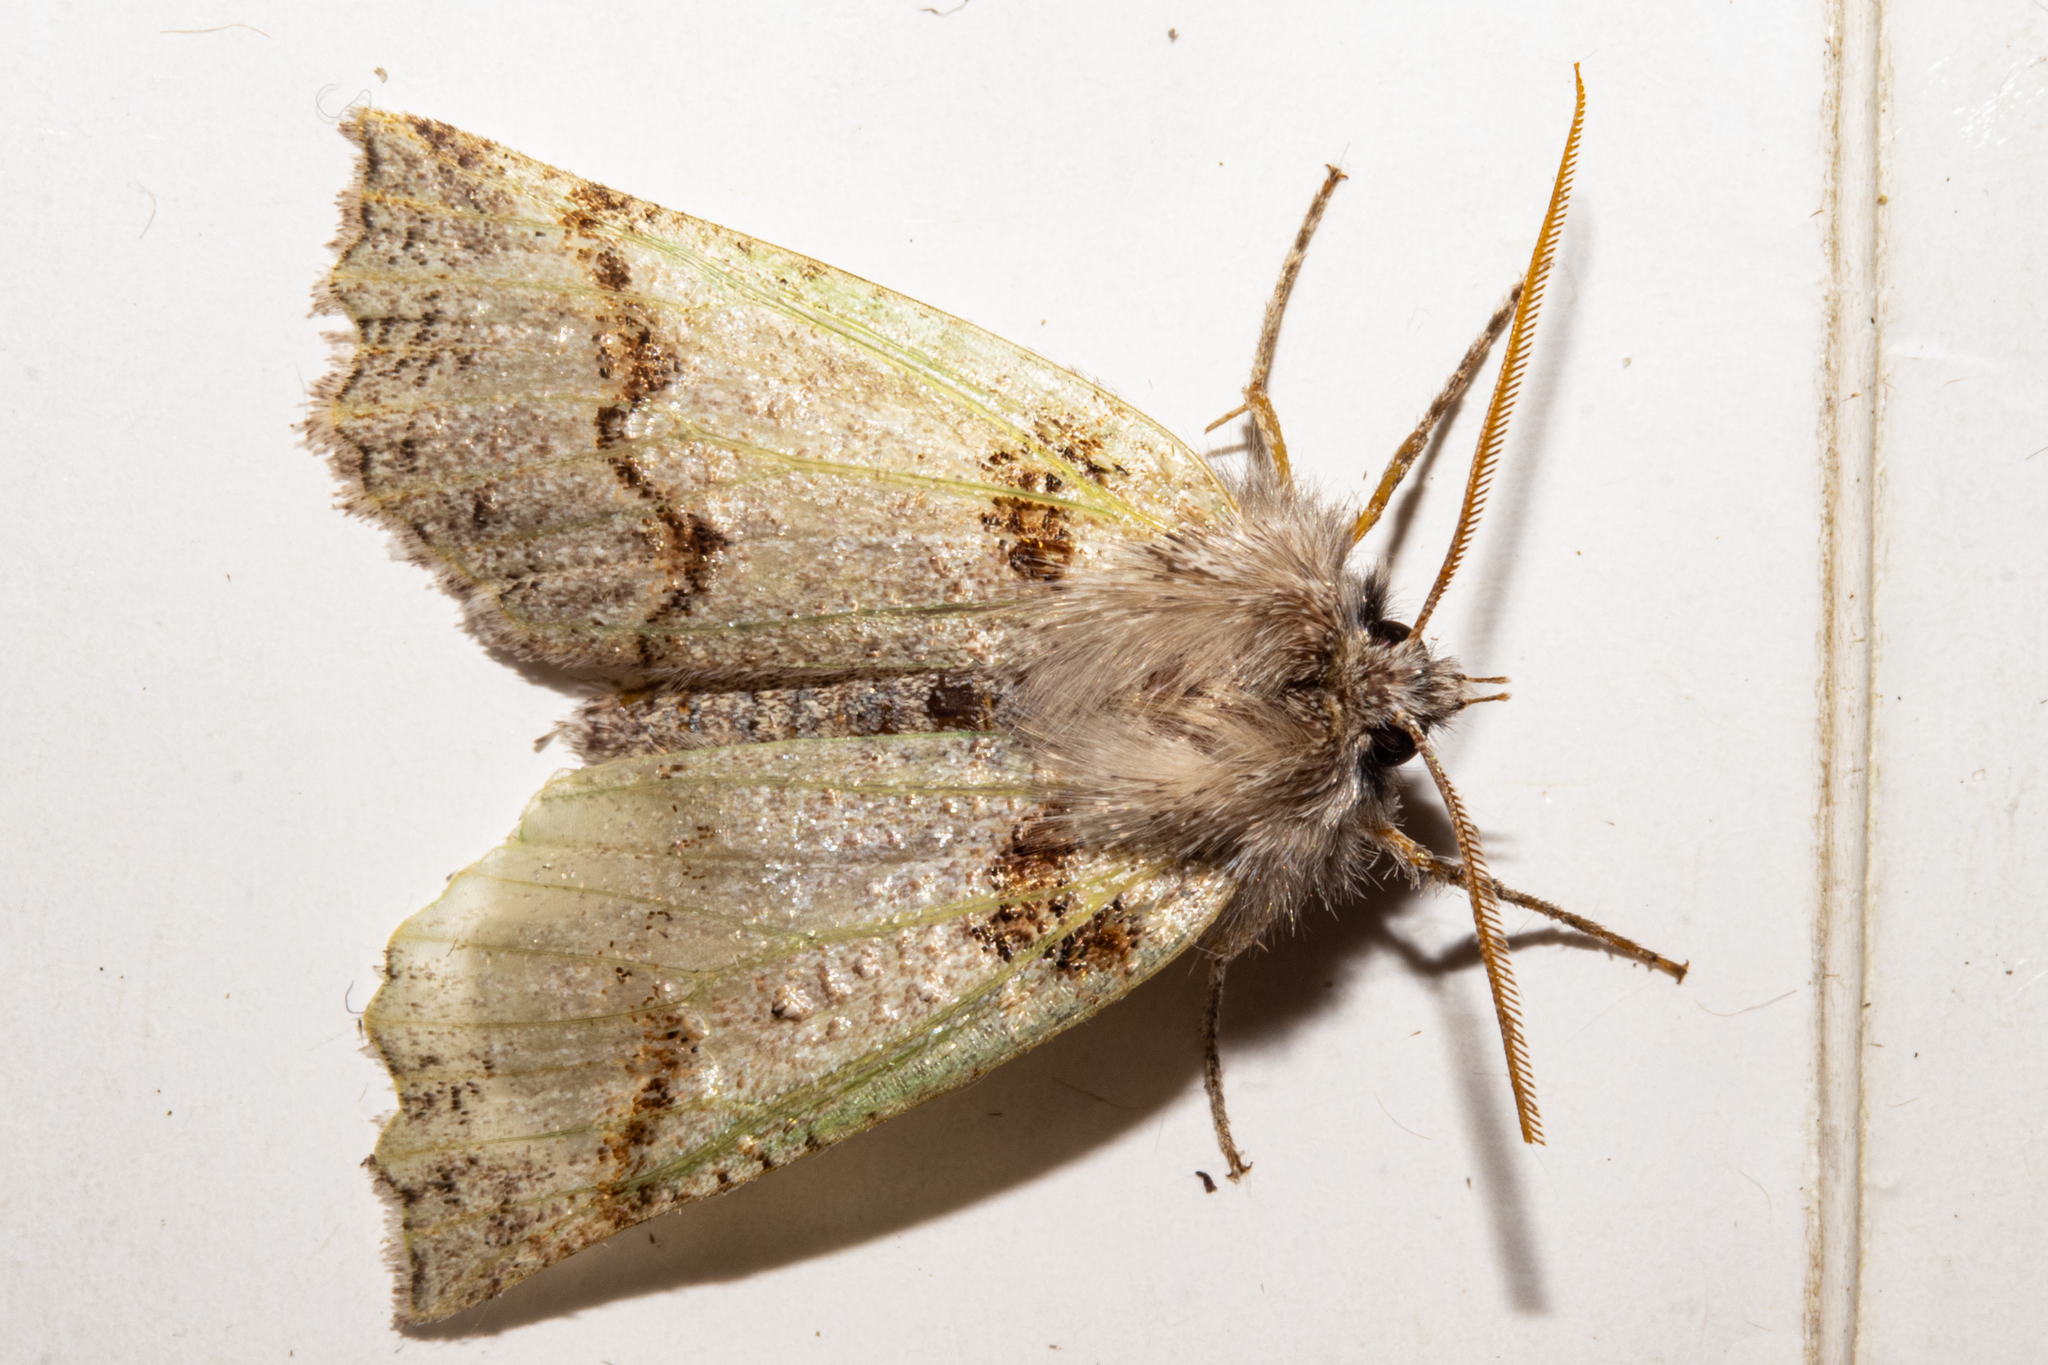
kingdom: Animalia
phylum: Arthropoda
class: Insecta
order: Lepidoptera
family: Geometridae
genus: Declana
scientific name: Declana floccosa
